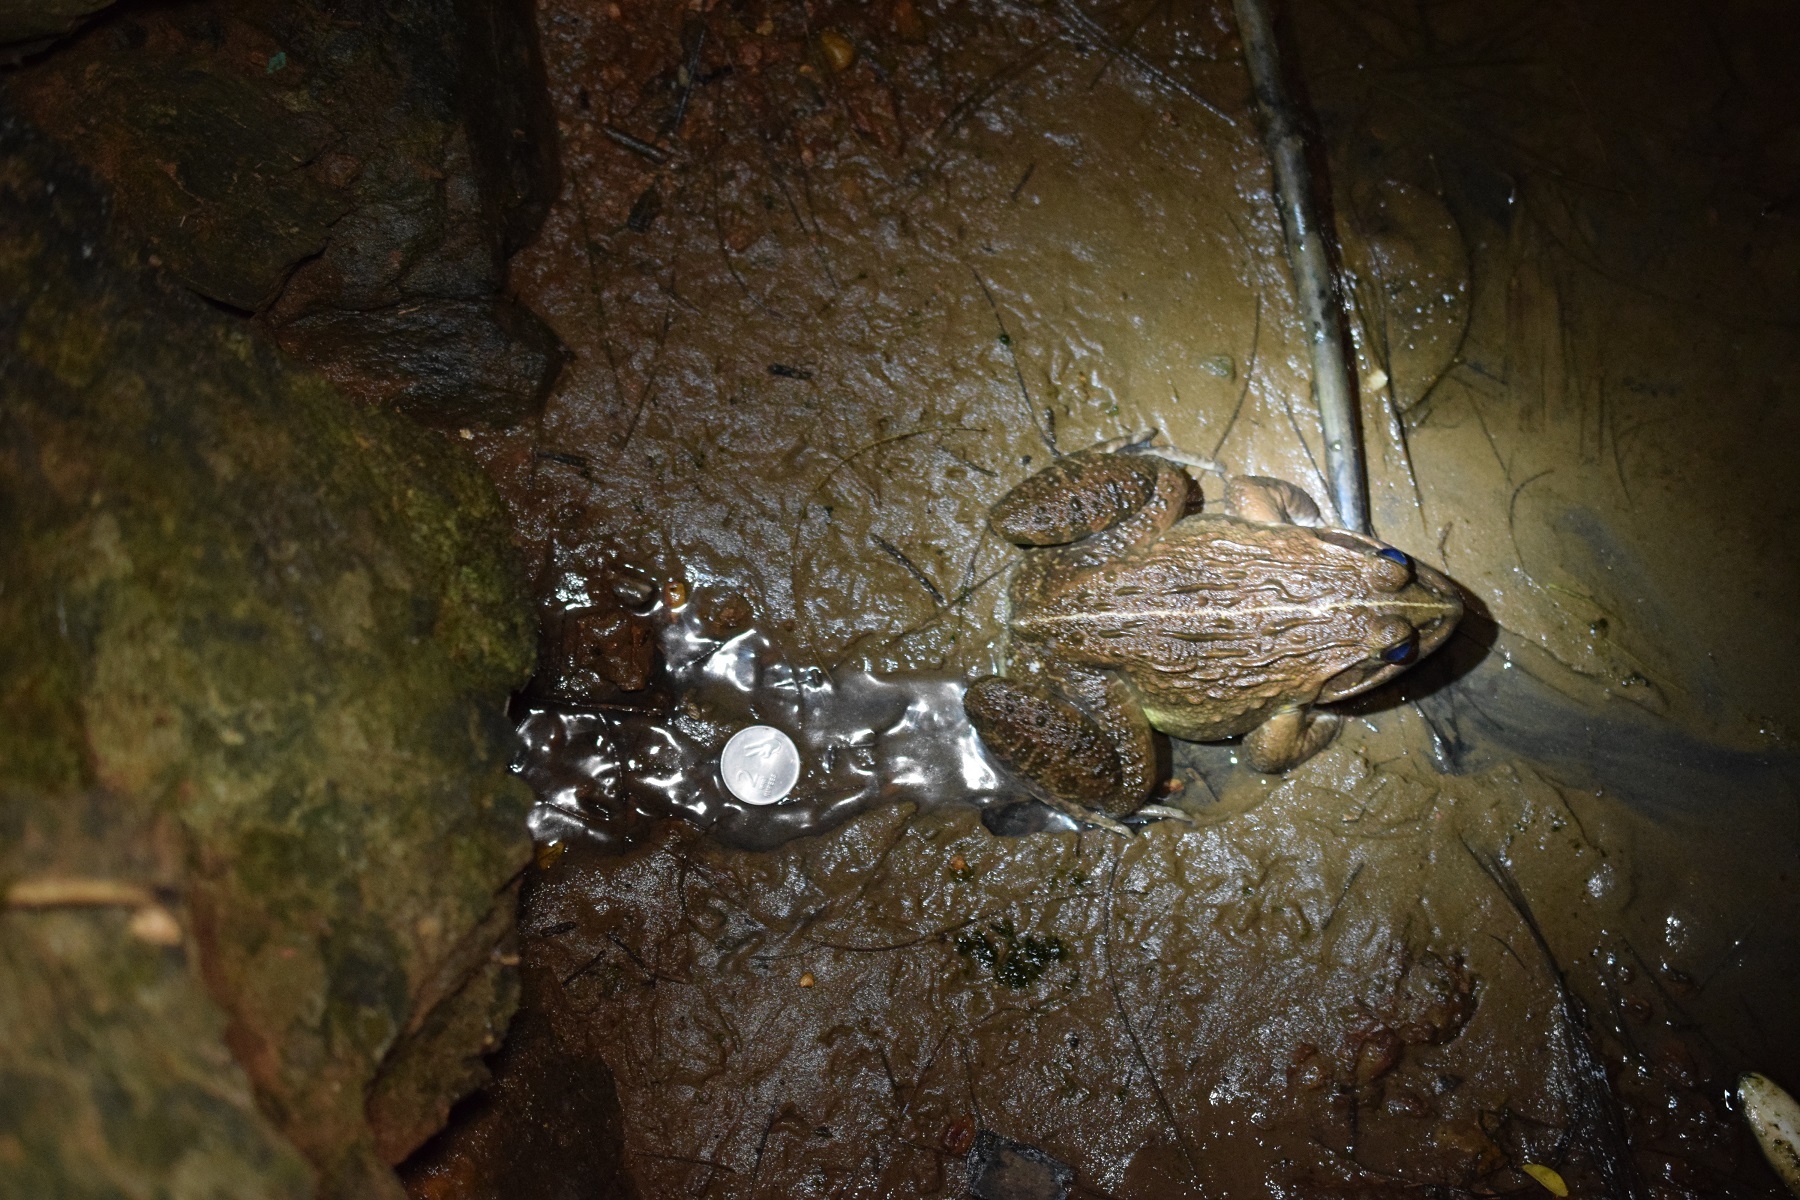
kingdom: Animalia
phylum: Chordata
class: Amphibia
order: Anura
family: Dicroglossidae
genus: Hoplobatrachus
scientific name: Hoplobatrachus tigerinus
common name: Indian bullfrog
